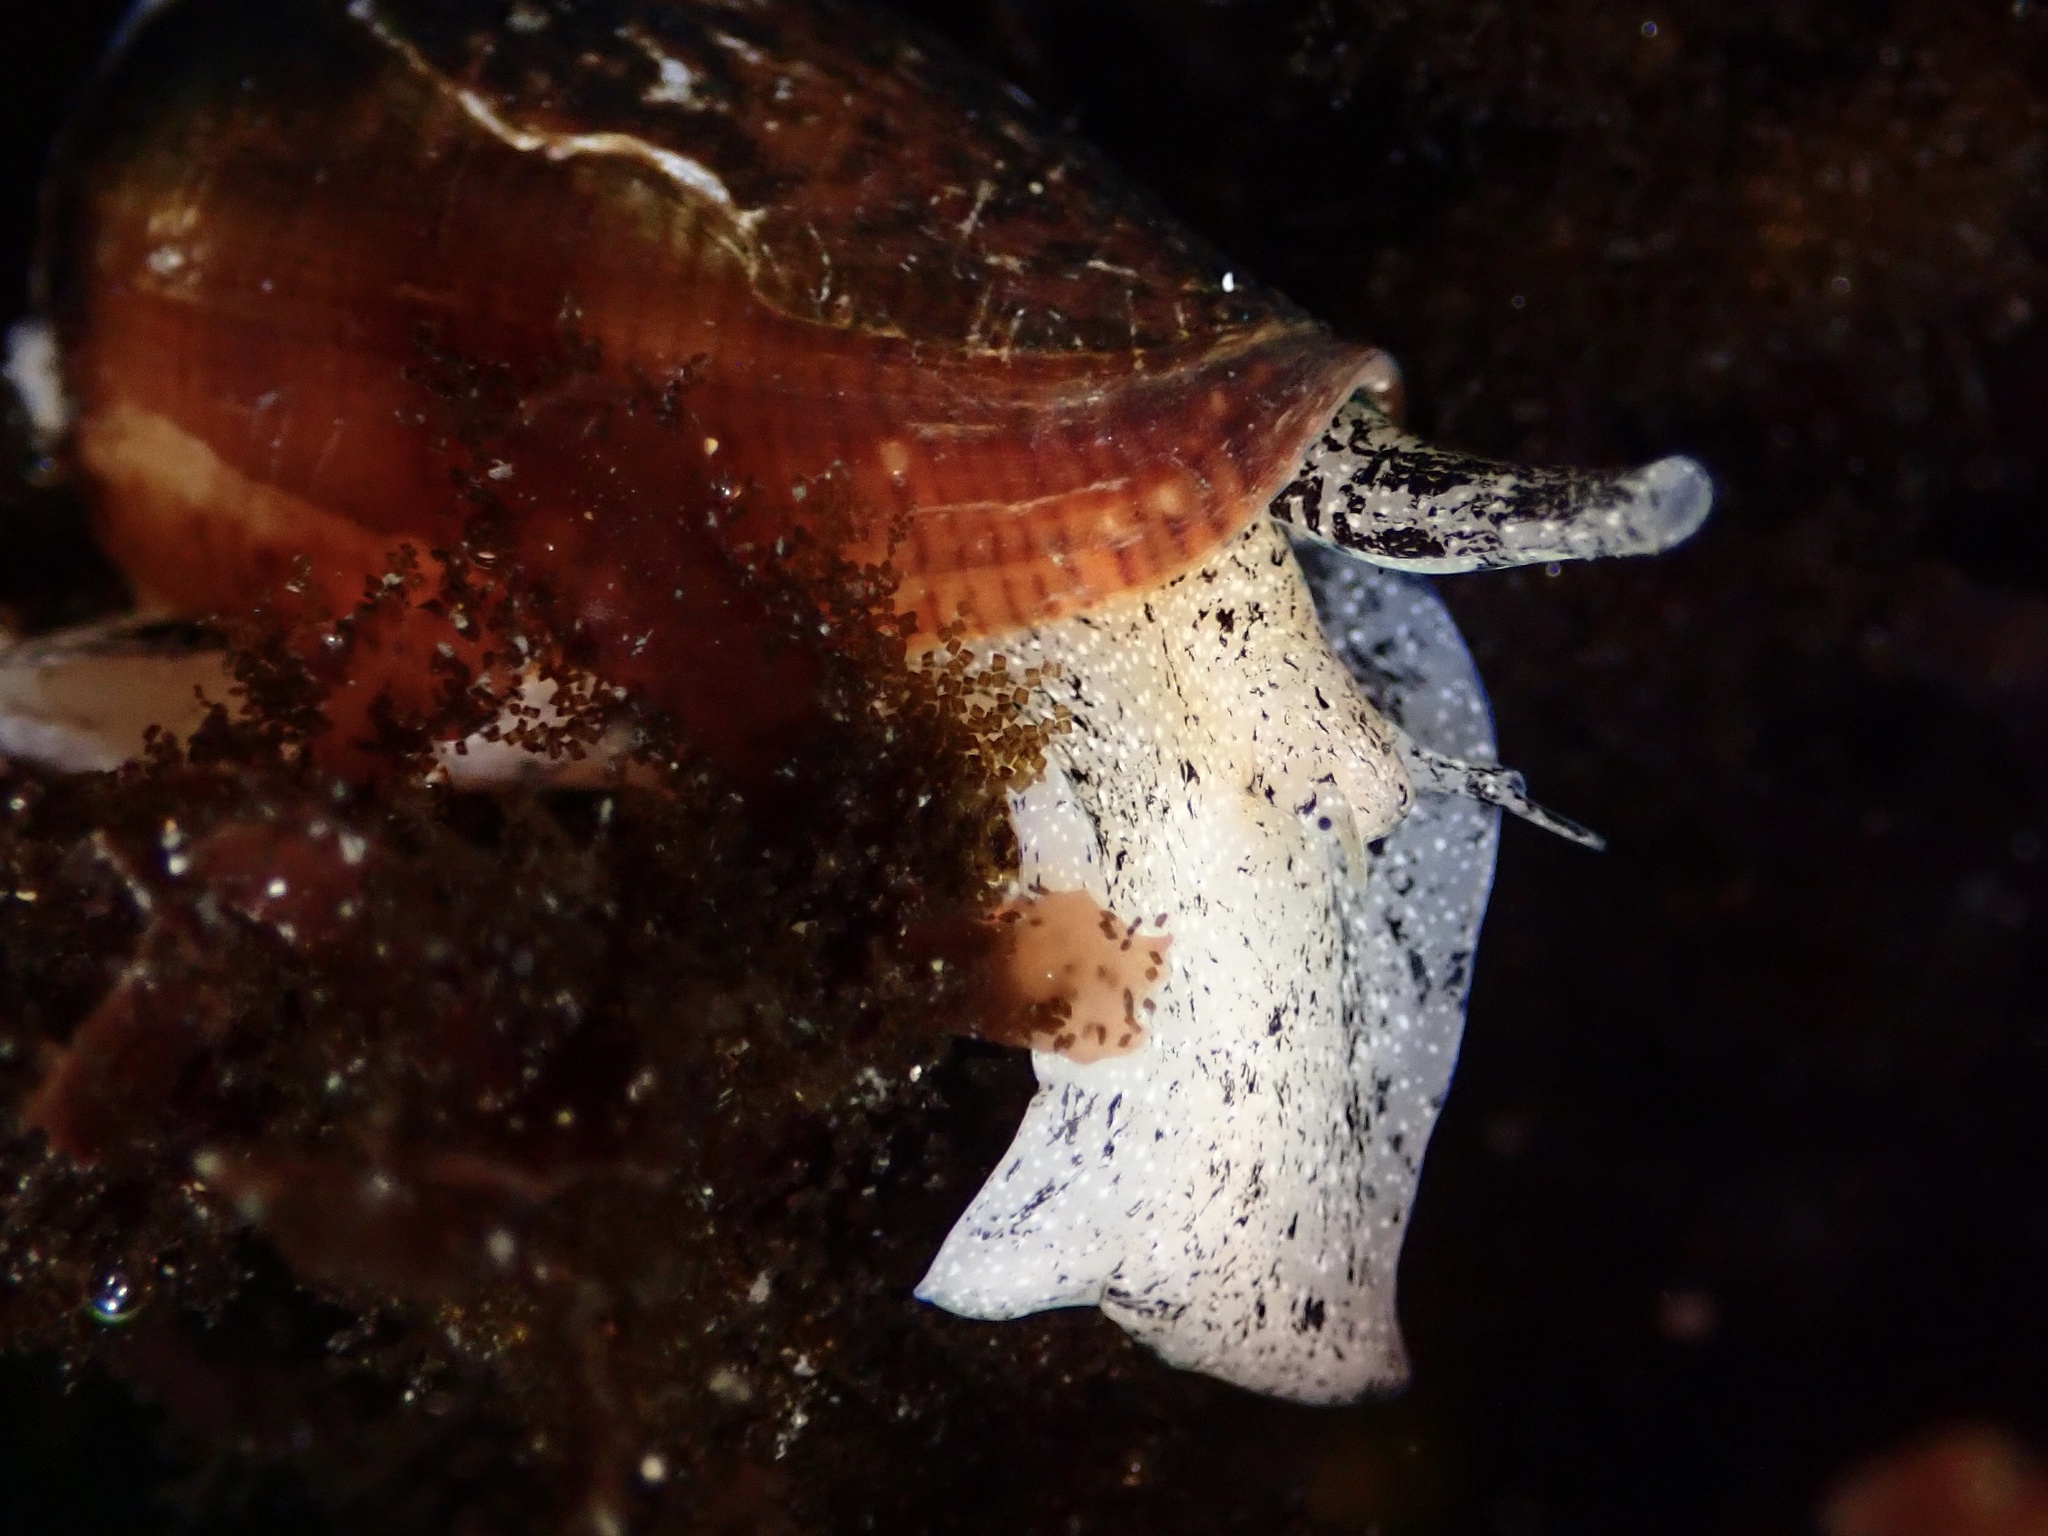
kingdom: Animalia
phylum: Mollusca
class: Gastropoda
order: Neogastropoda
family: Conidae
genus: Californiconus
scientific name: Californiconus californicus
